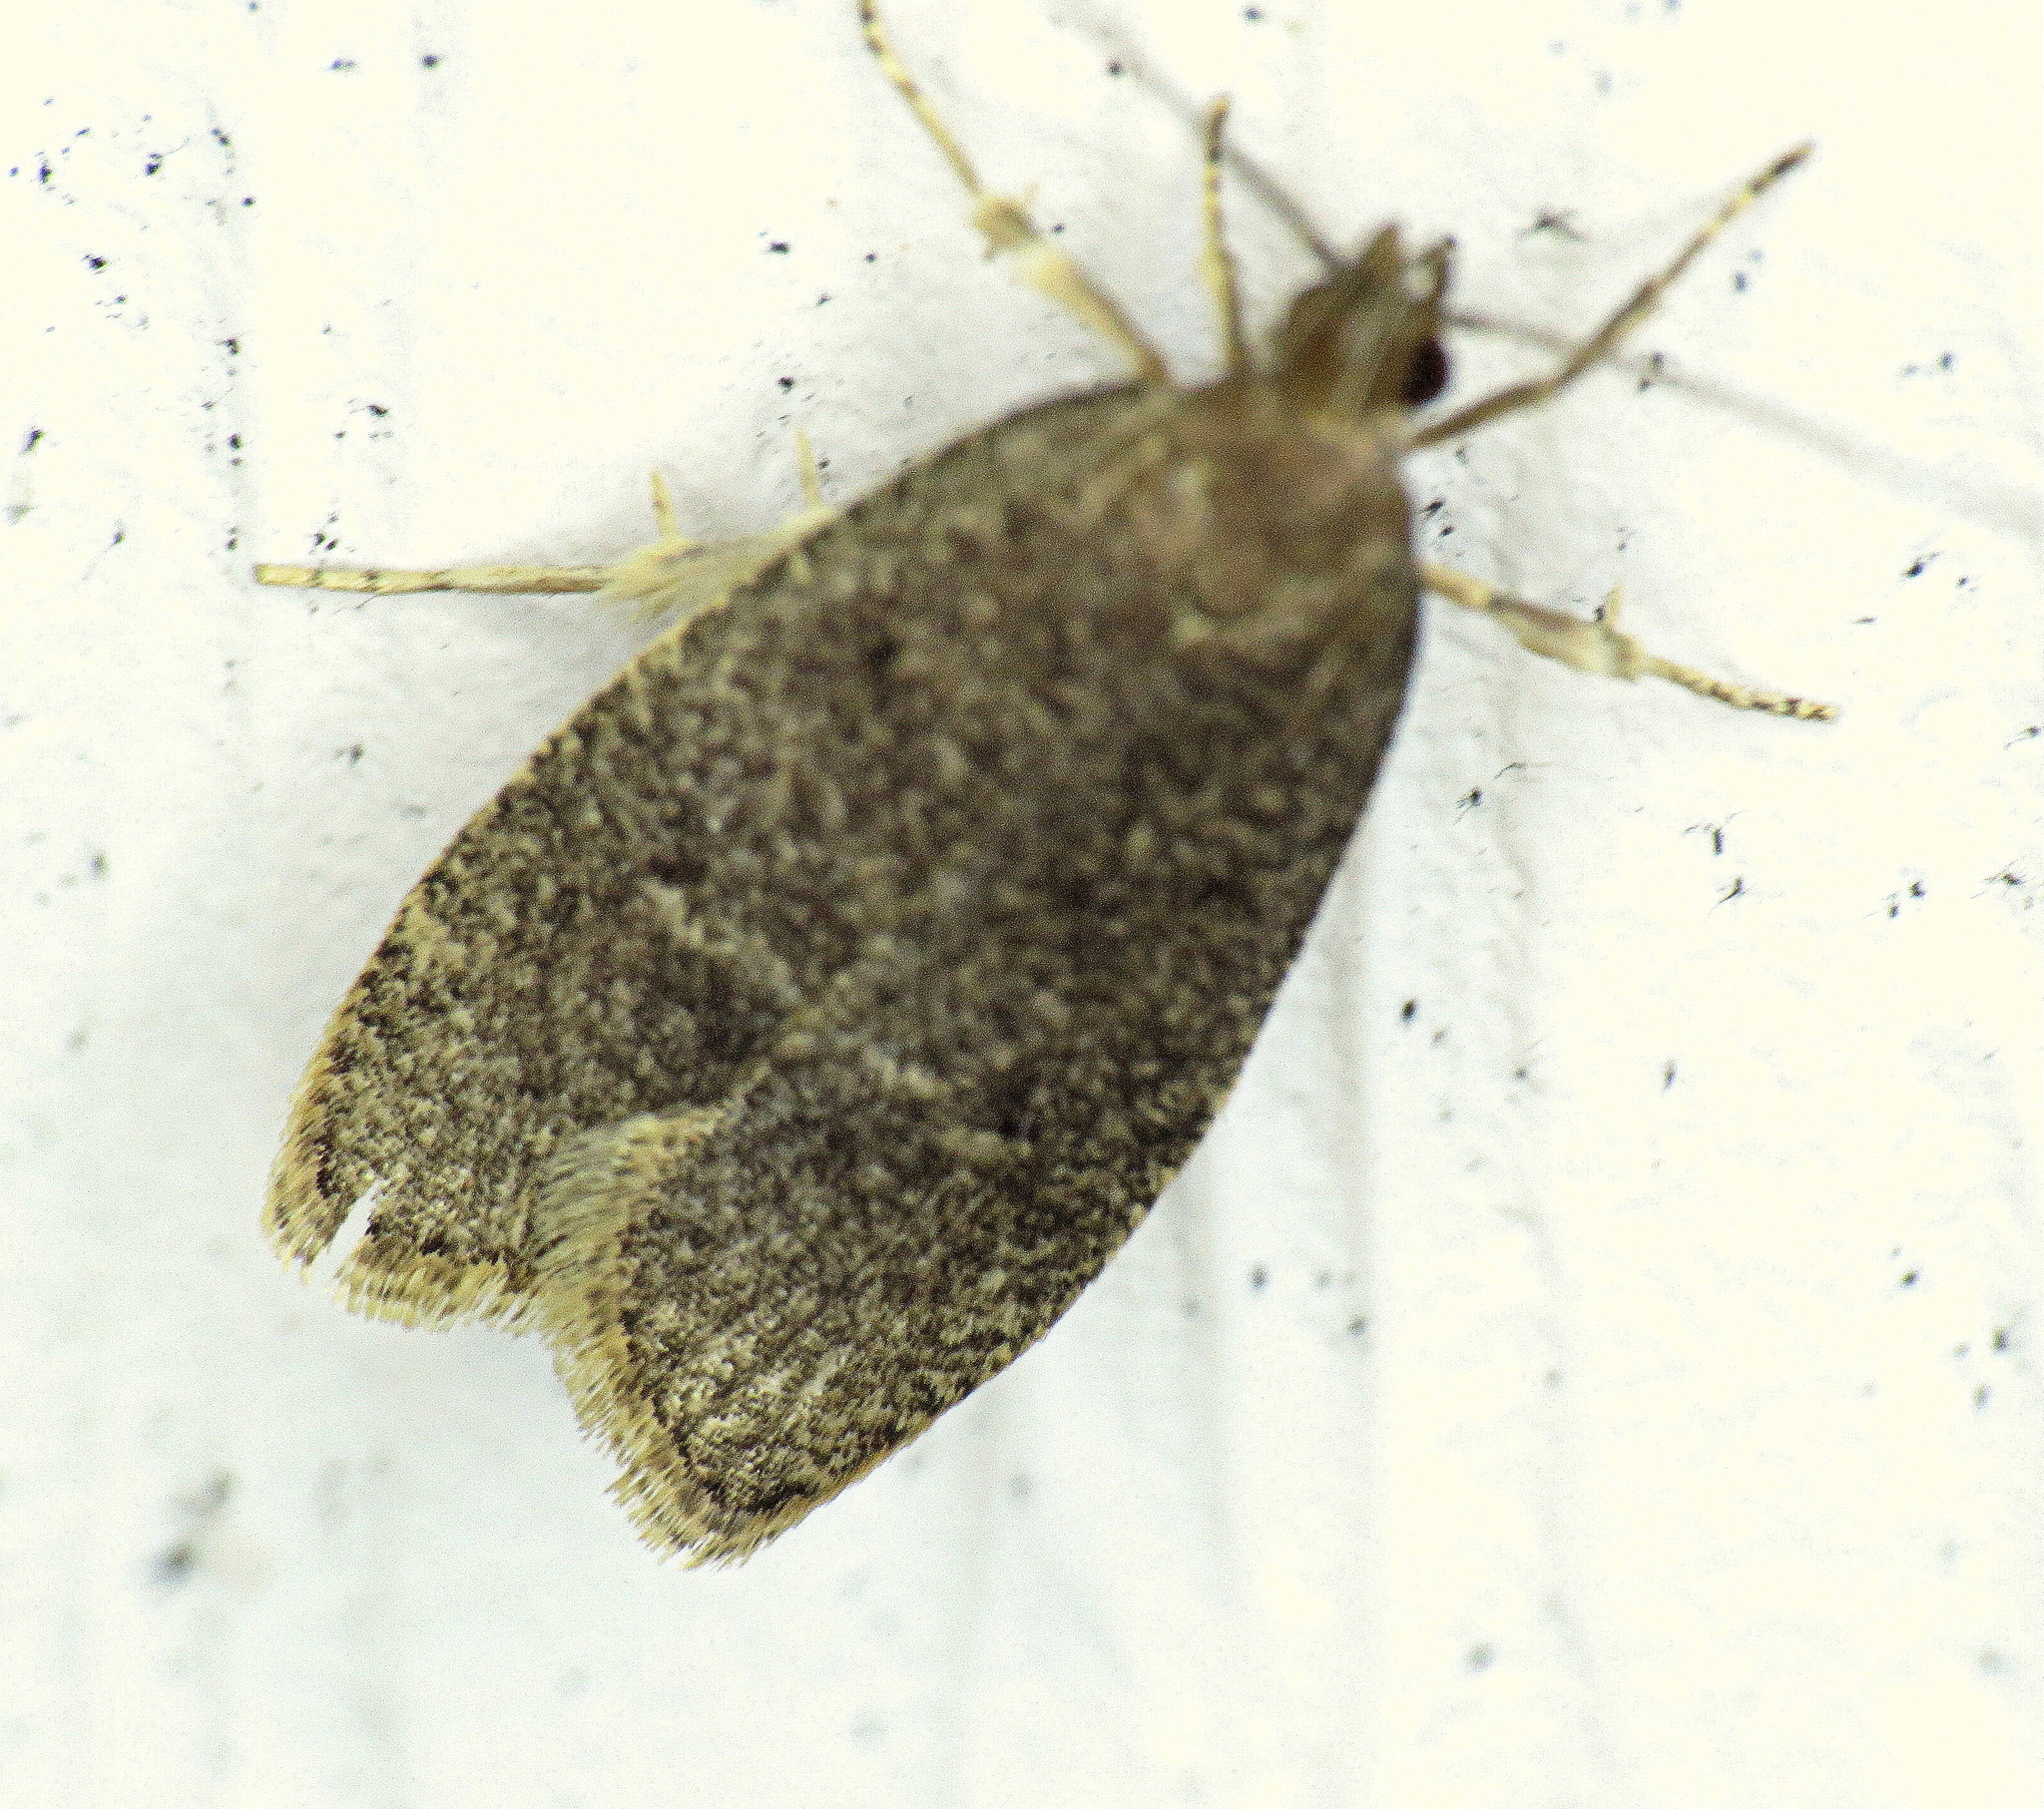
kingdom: Animalia
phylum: Arthropoda
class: Insecta
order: Lepidoptera
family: Depressariidae
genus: Psilocorsis
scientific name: Psilocorsis reflexella
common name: Dotted leaftier moth
